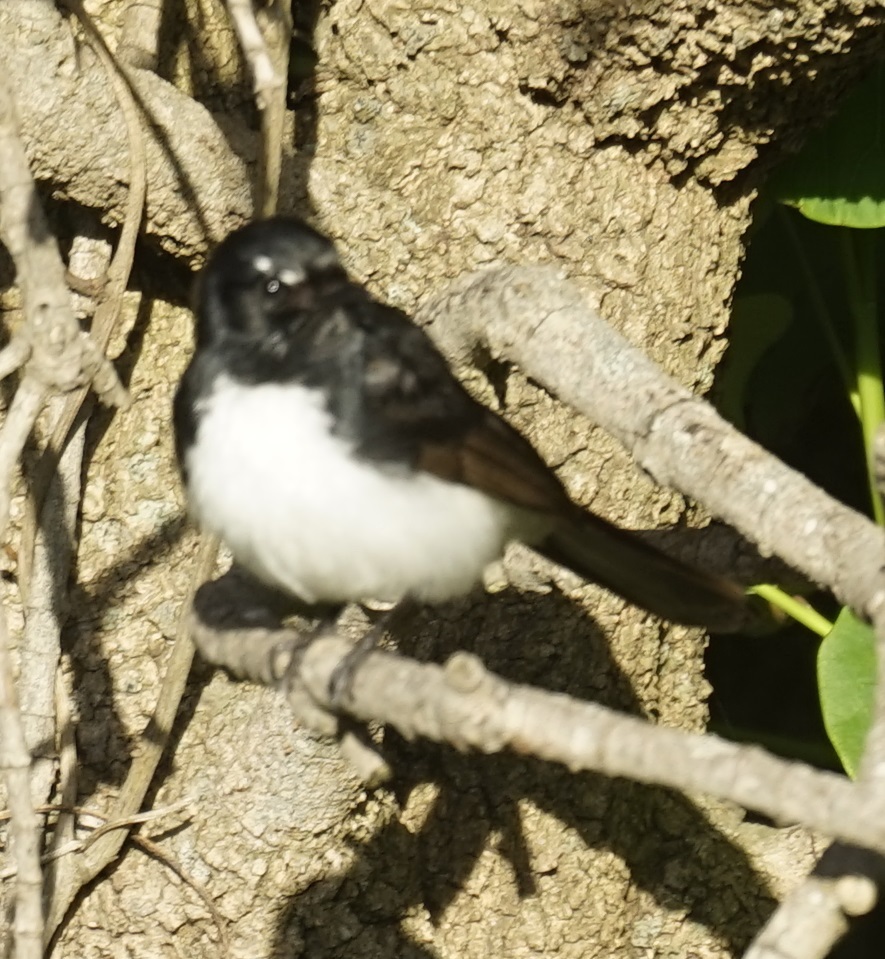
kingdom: Animalia
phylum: Chordata
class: Aves
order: Passeriformes
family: Rhipiduridae
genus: Rhipidura
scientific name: Rhipidura leucophrys
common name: Willie wagtail
